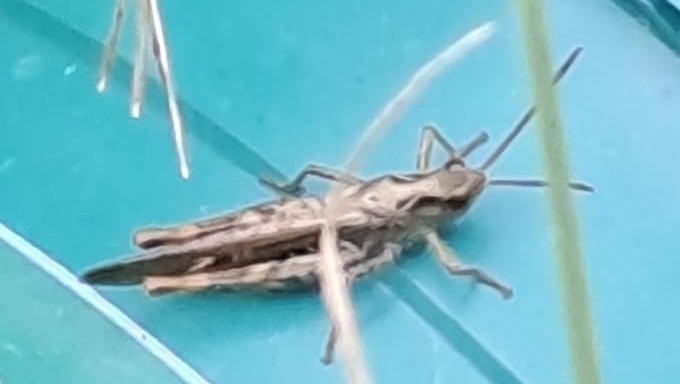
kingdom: Animalia
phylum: Arthropoda
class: Insecta
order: Orthoptera
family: Acrididae
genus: Chorthippus
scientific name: Chorthippus brunneus
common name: Field grasshopper
